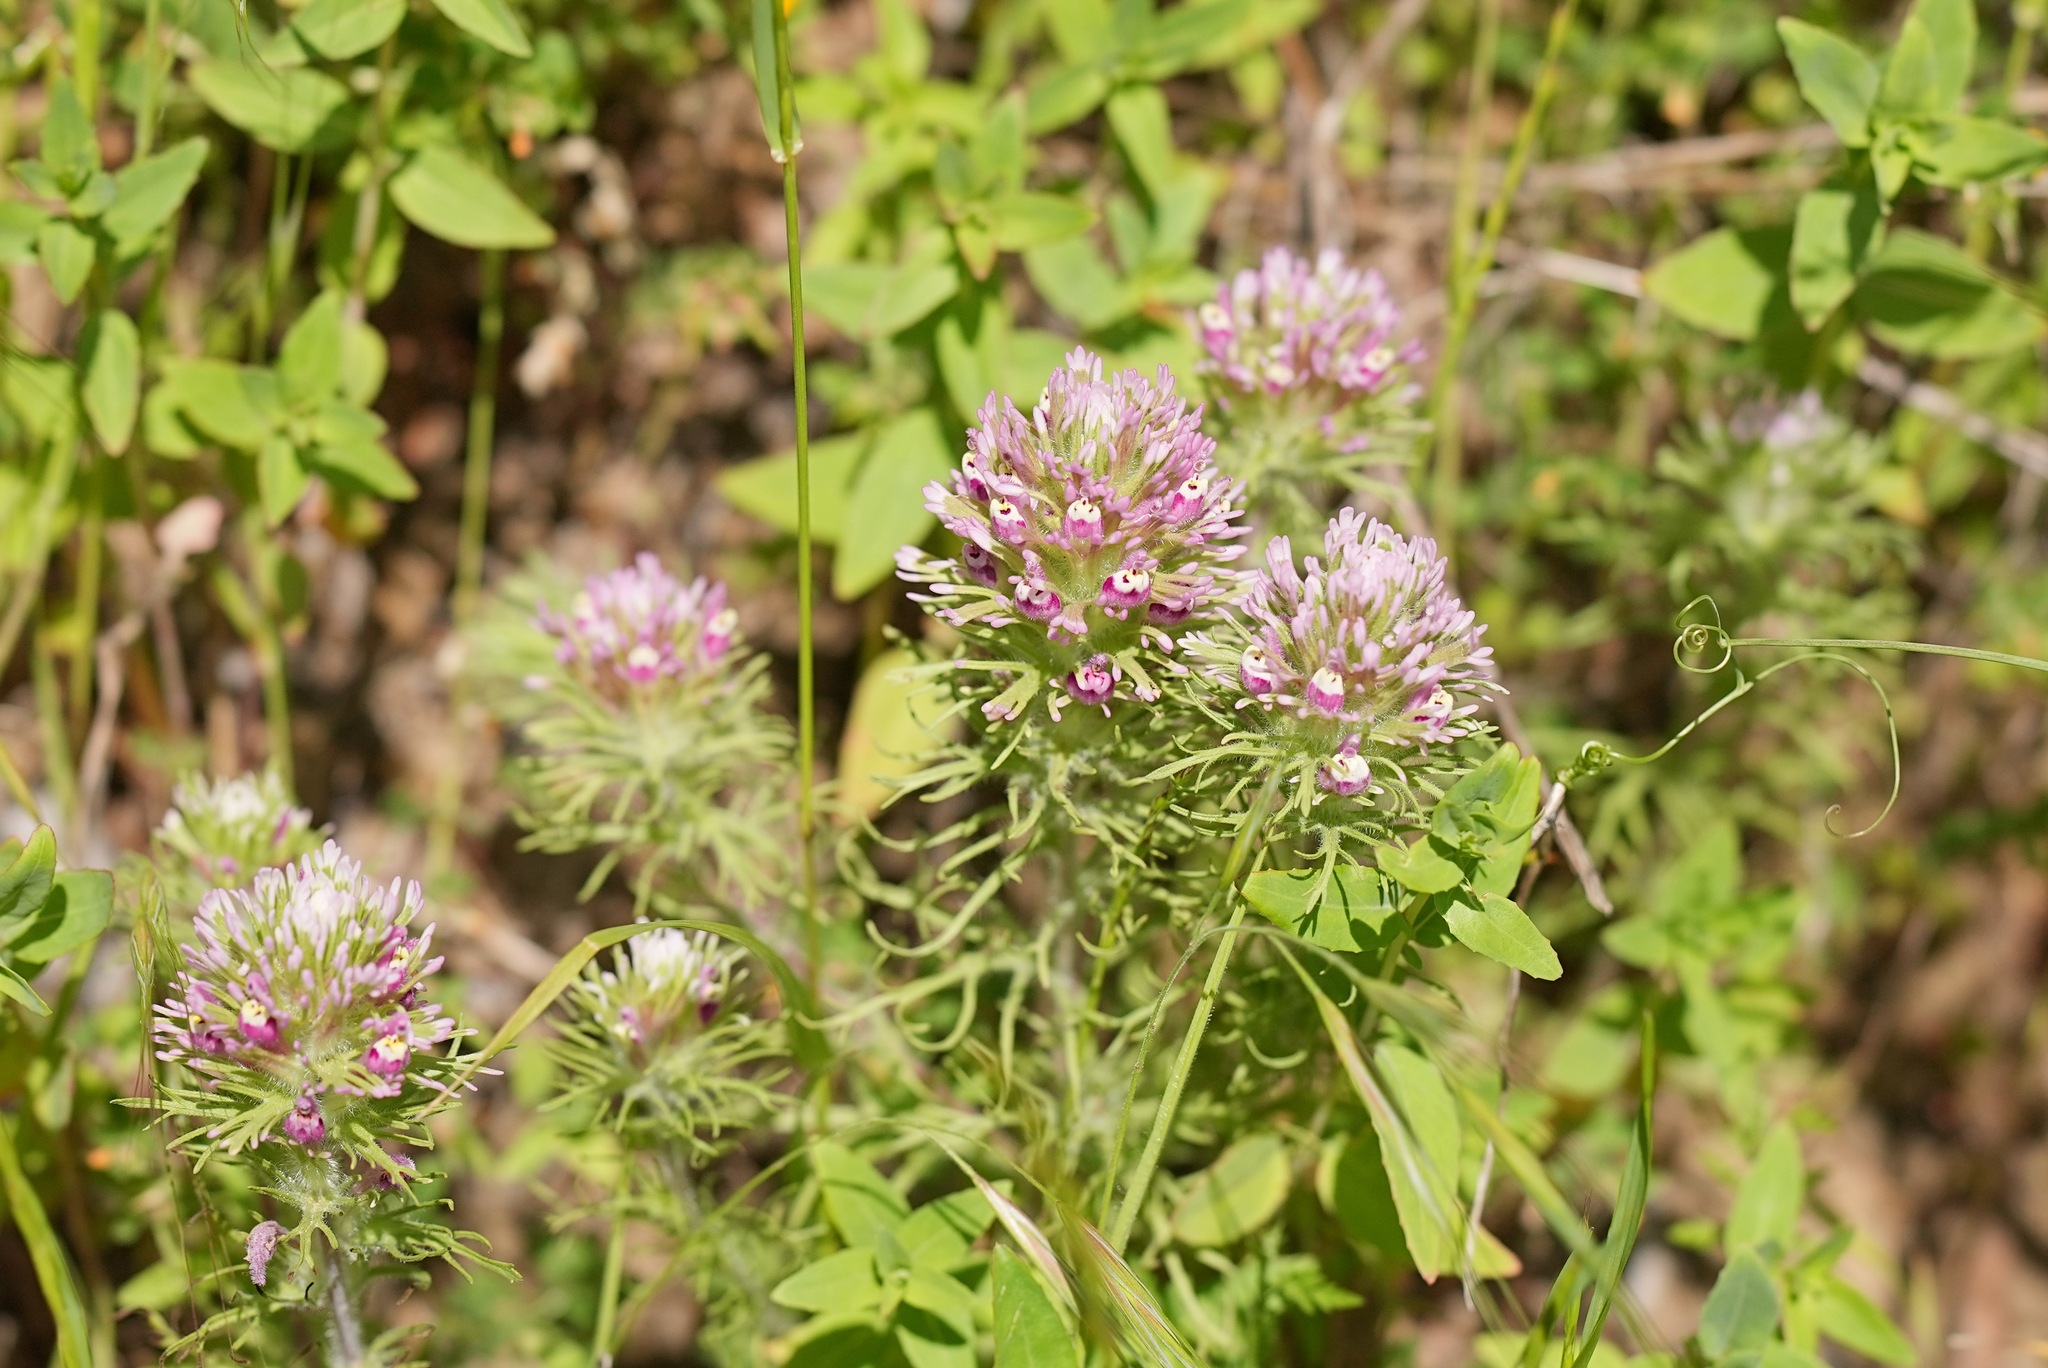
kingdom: Plantae
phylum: Tracheophyta
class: Magnoliopsida
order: Lamiales
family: Orobanchaceae
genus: Castilleja
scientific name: Castilleja exserta
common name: Purple owl-clover
